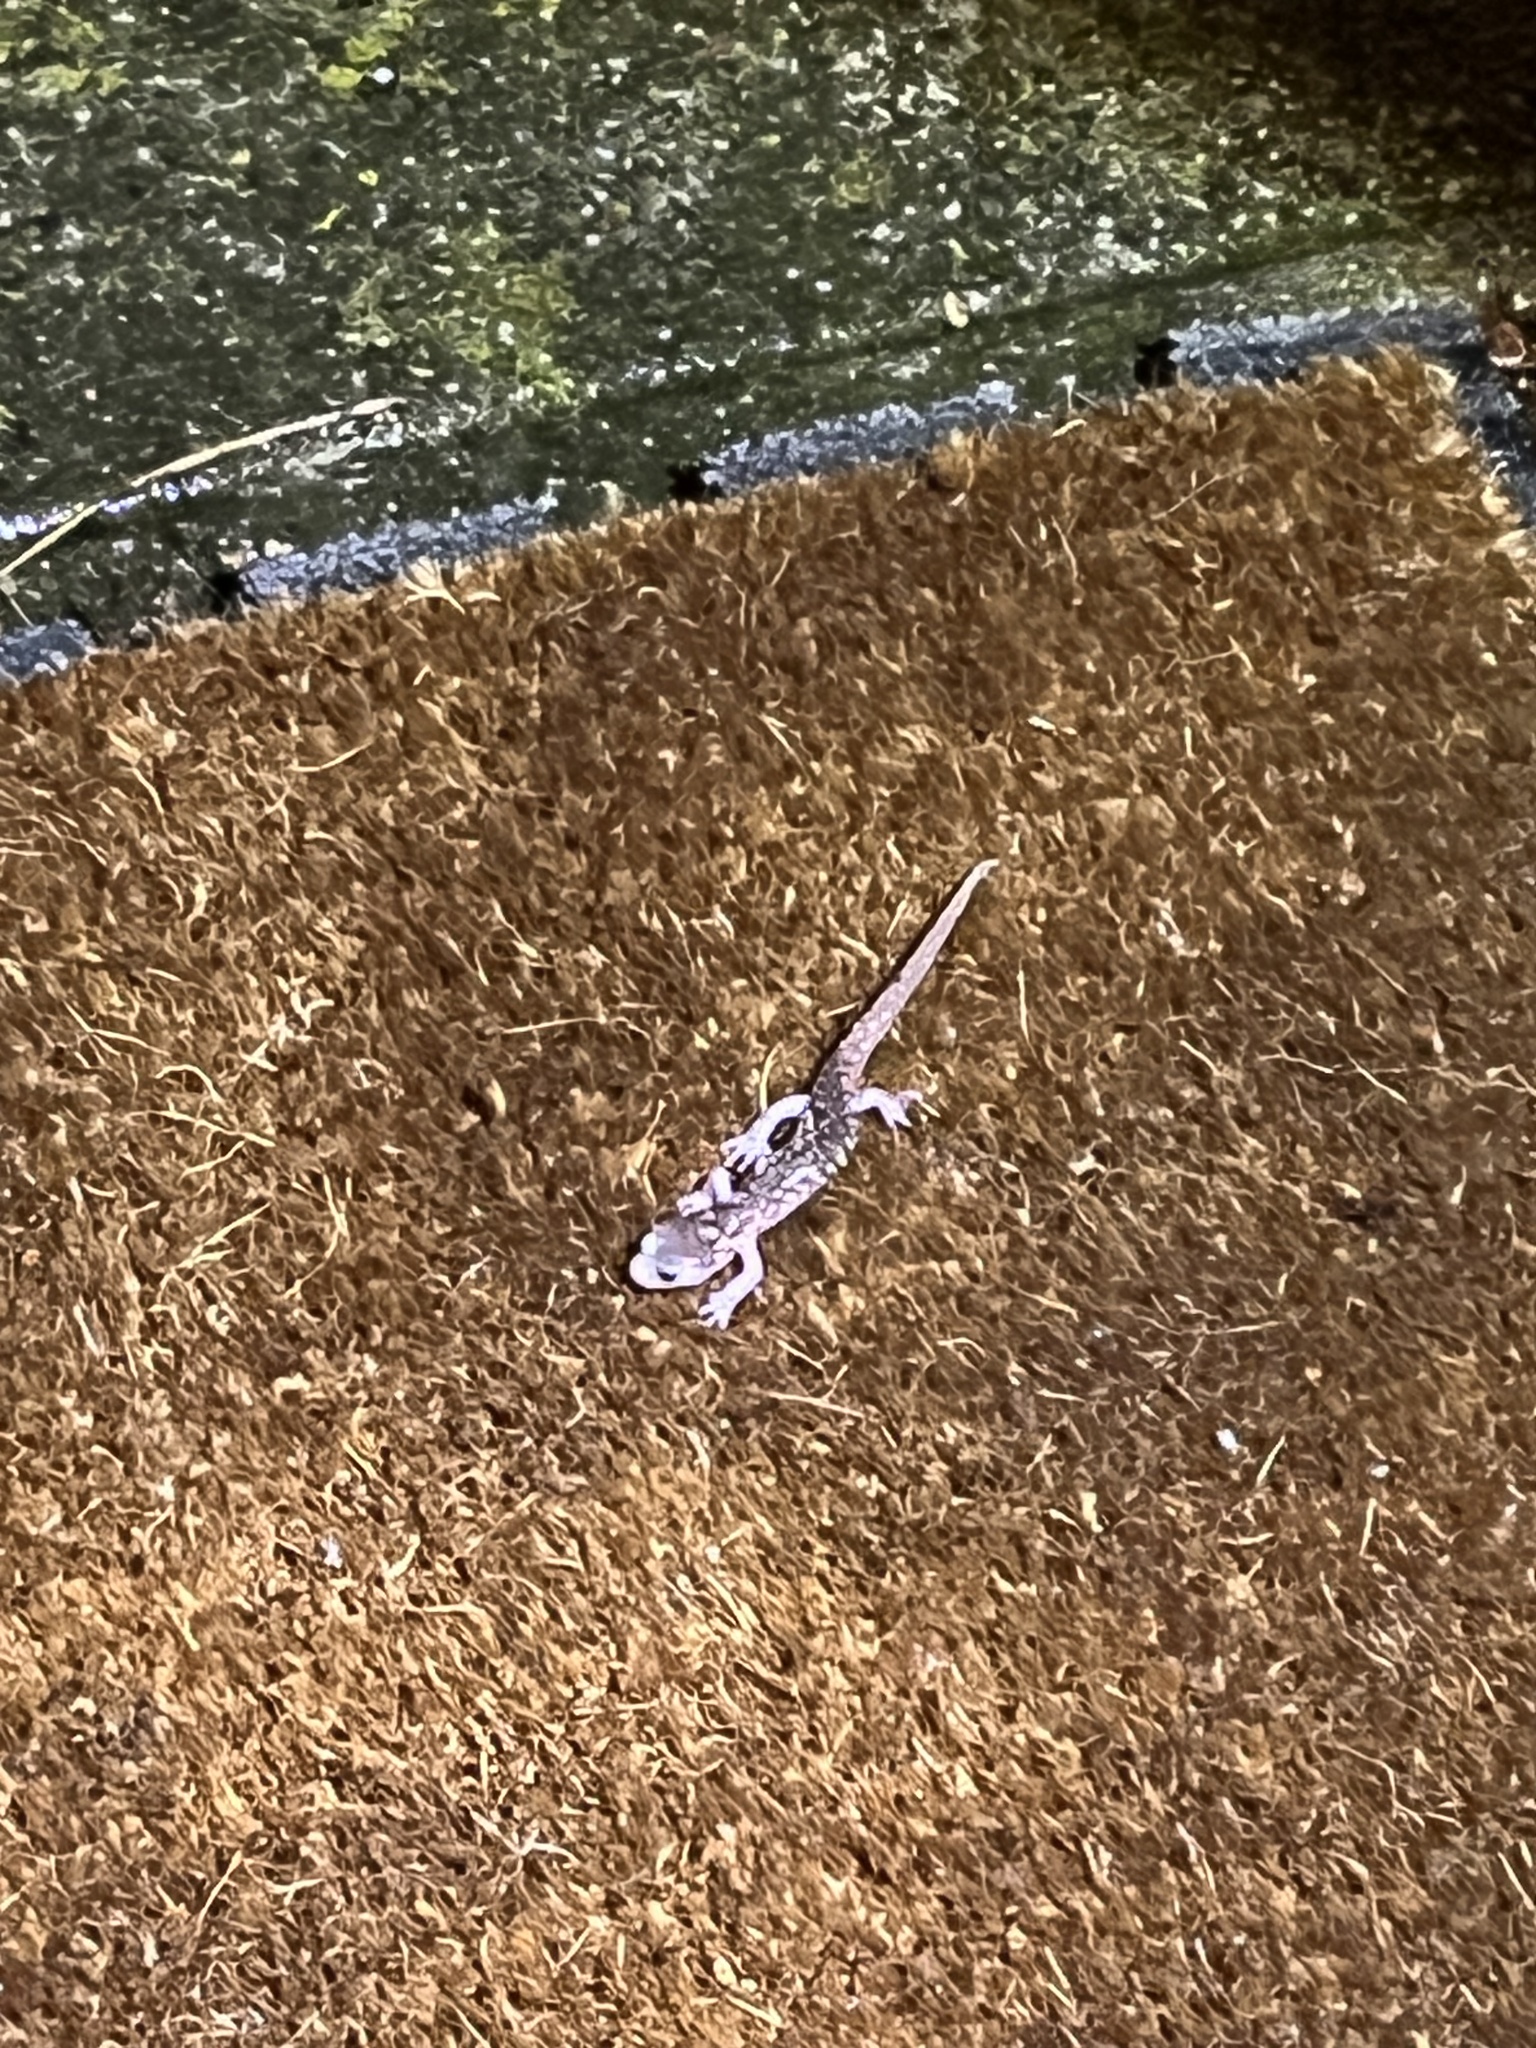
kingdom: Animalia
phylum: Chordata
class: Amphibia
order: Caudata
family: Plethodontidae
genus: Aneides
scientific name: Aneides lugubris
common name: Arboreal salamander
